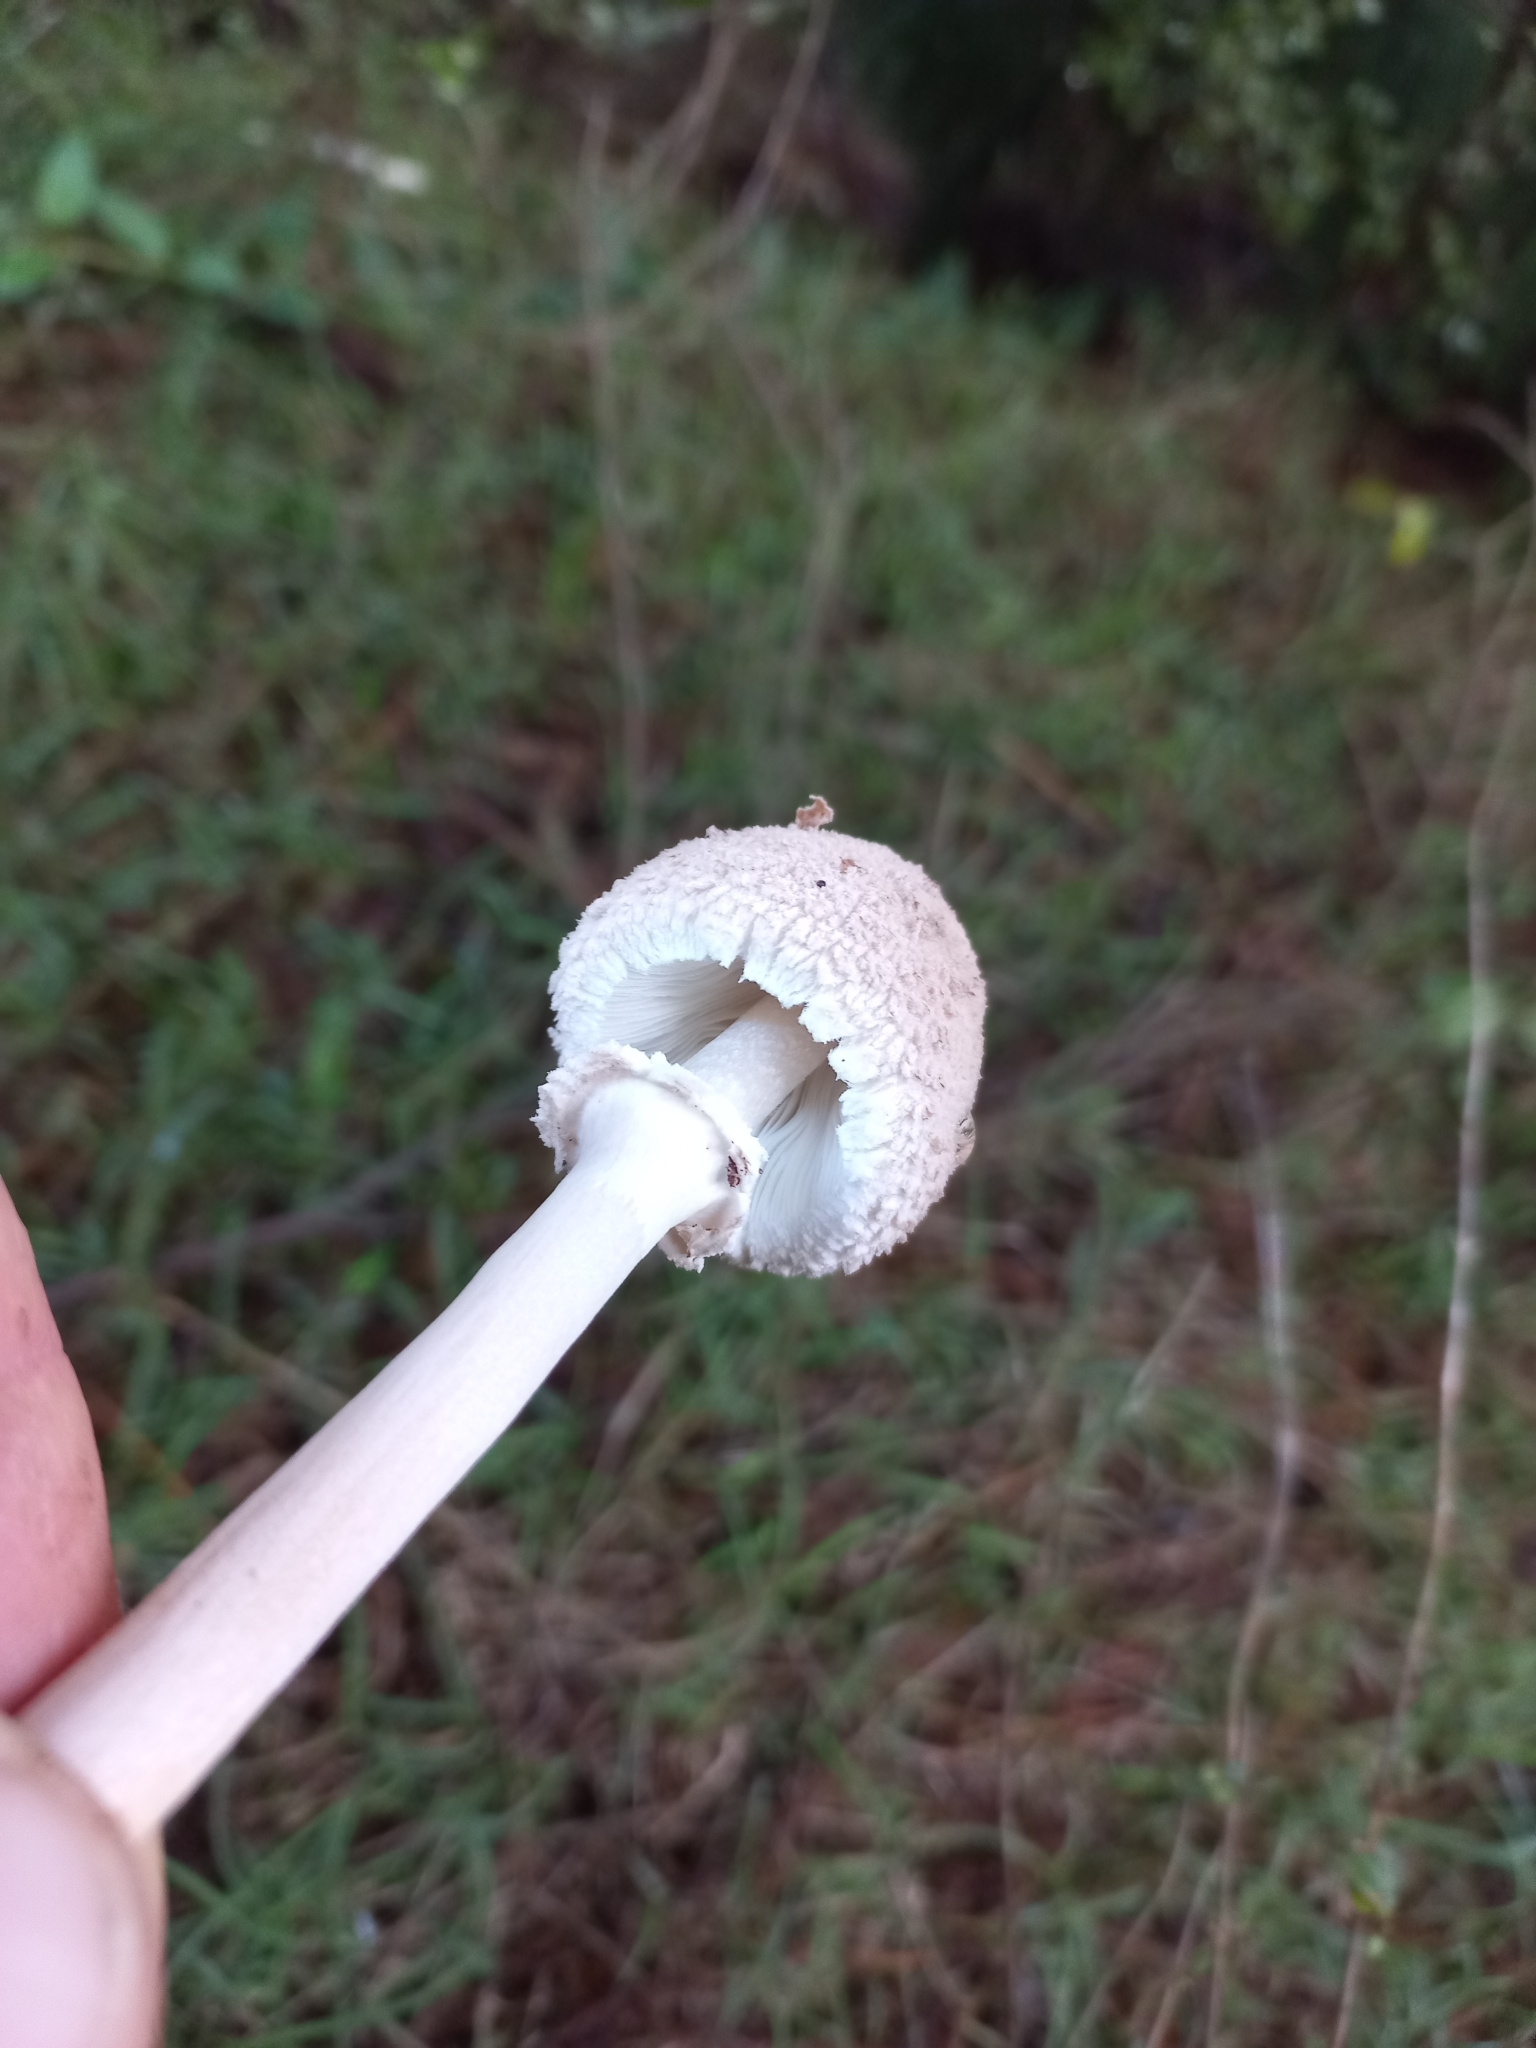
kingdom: Fungi
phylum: Basidiomycota
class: Agaricomycetes
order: Agaricales
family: Agaricaceae
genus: Macrolepiota
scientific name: Macrolepiota clelandii
